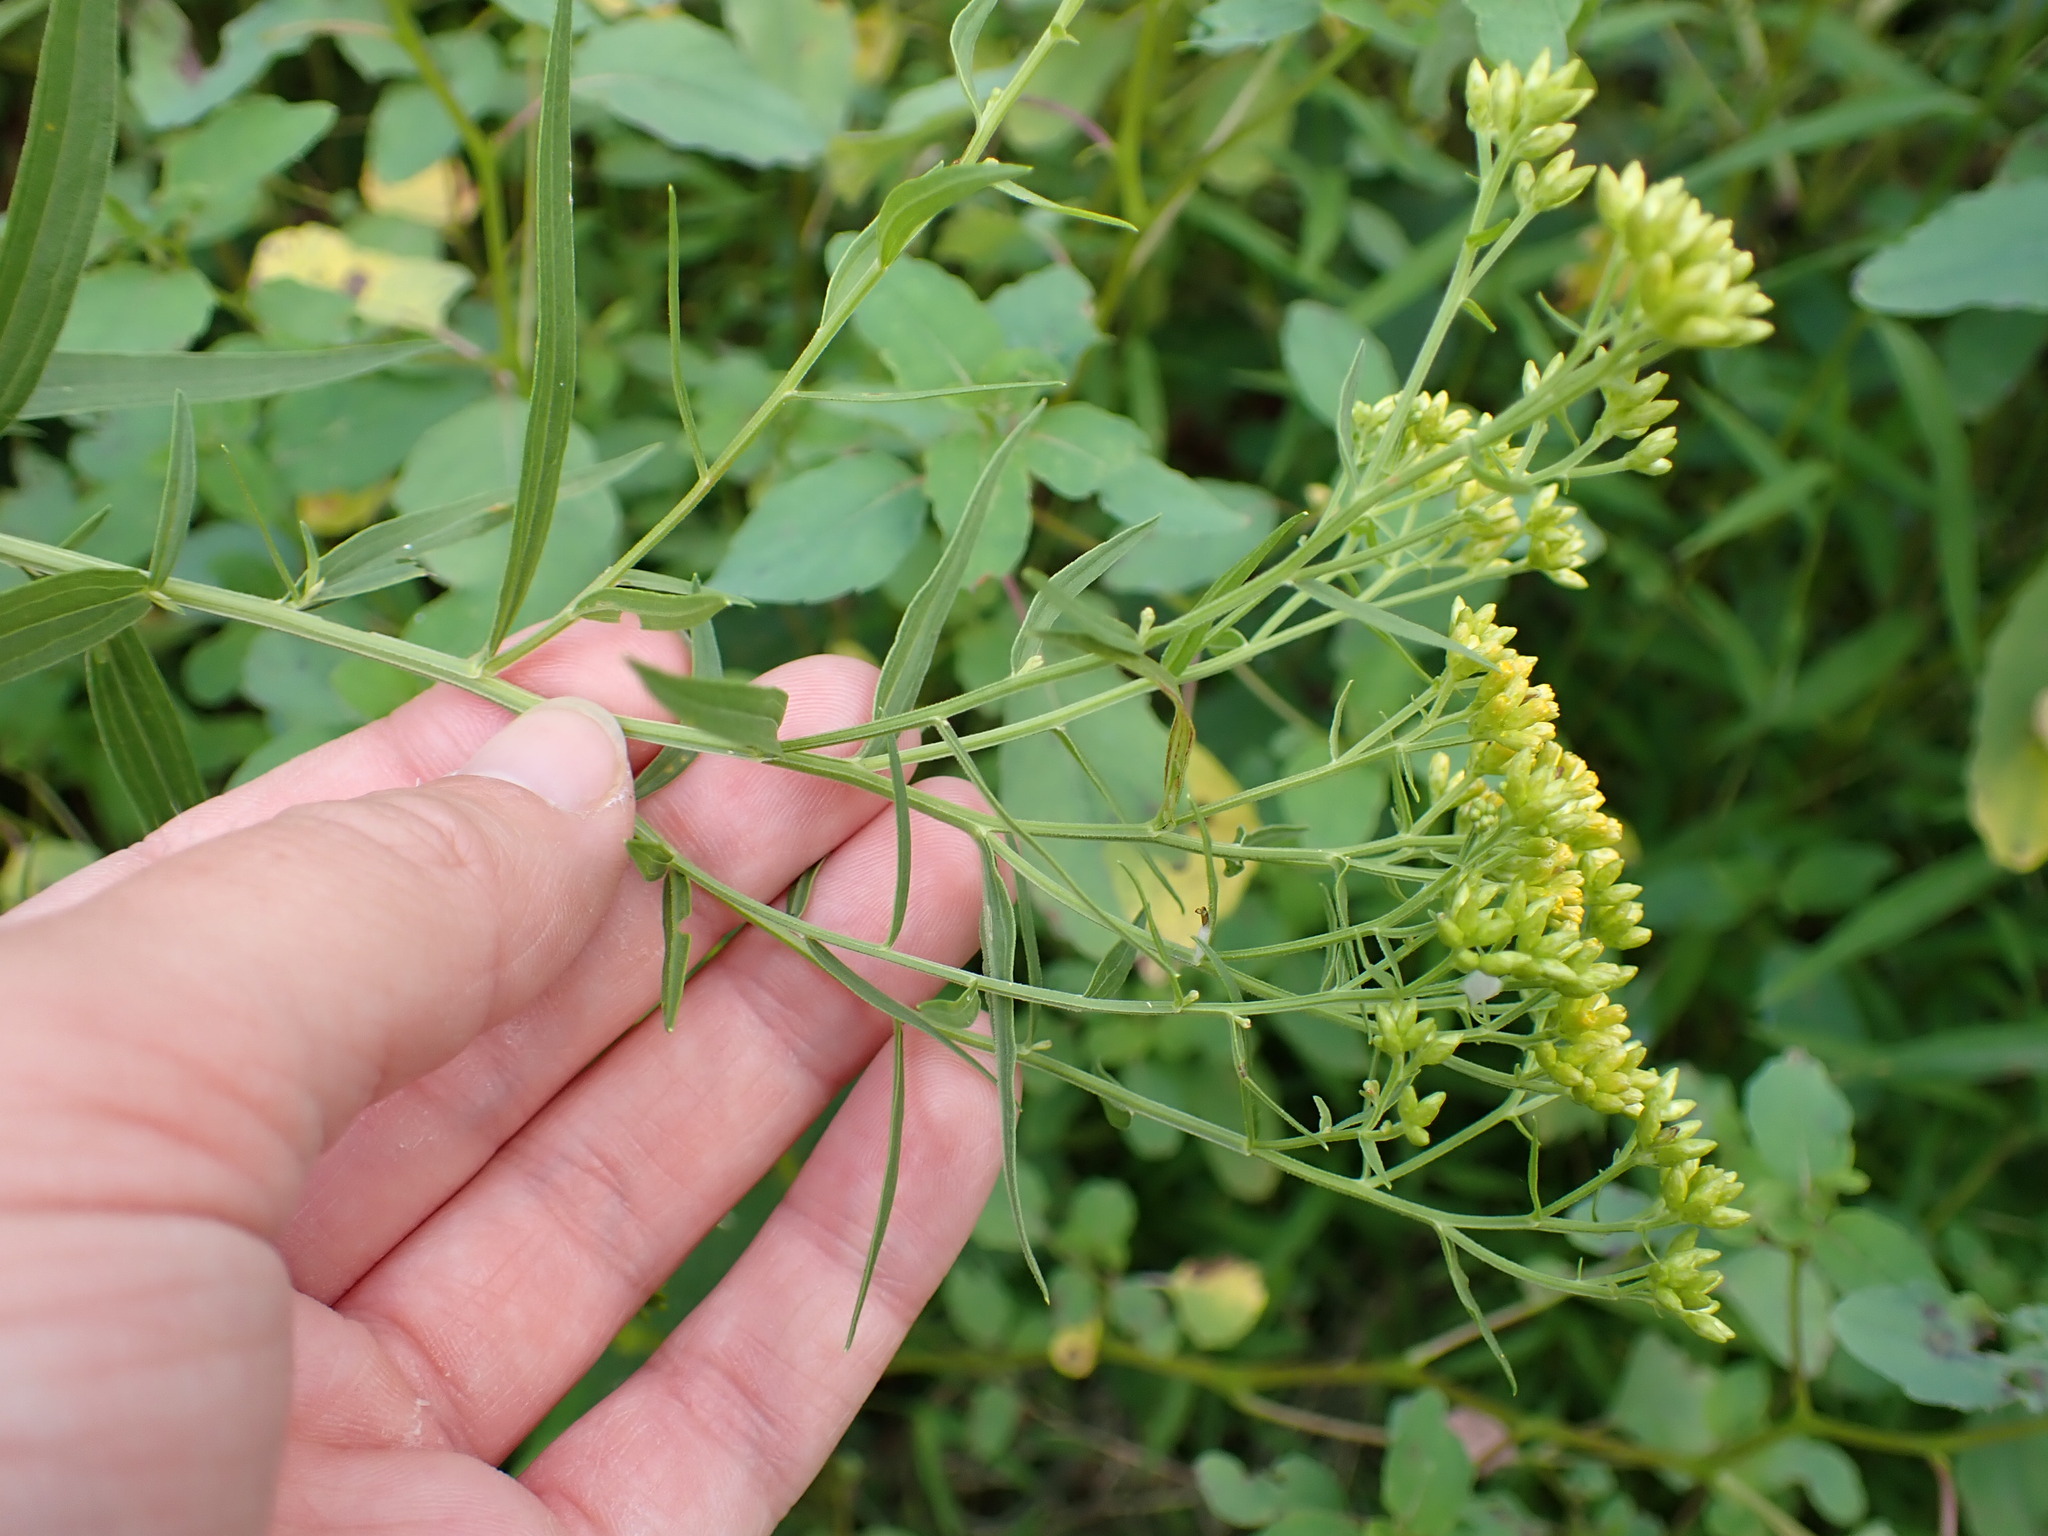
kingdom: Plantae
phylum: Tracheophyta
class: Magnoliopsida
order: Asterales
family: Asteraceae
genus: Euthamia
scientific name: Euthamia graminifolia
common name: Common goldentop
